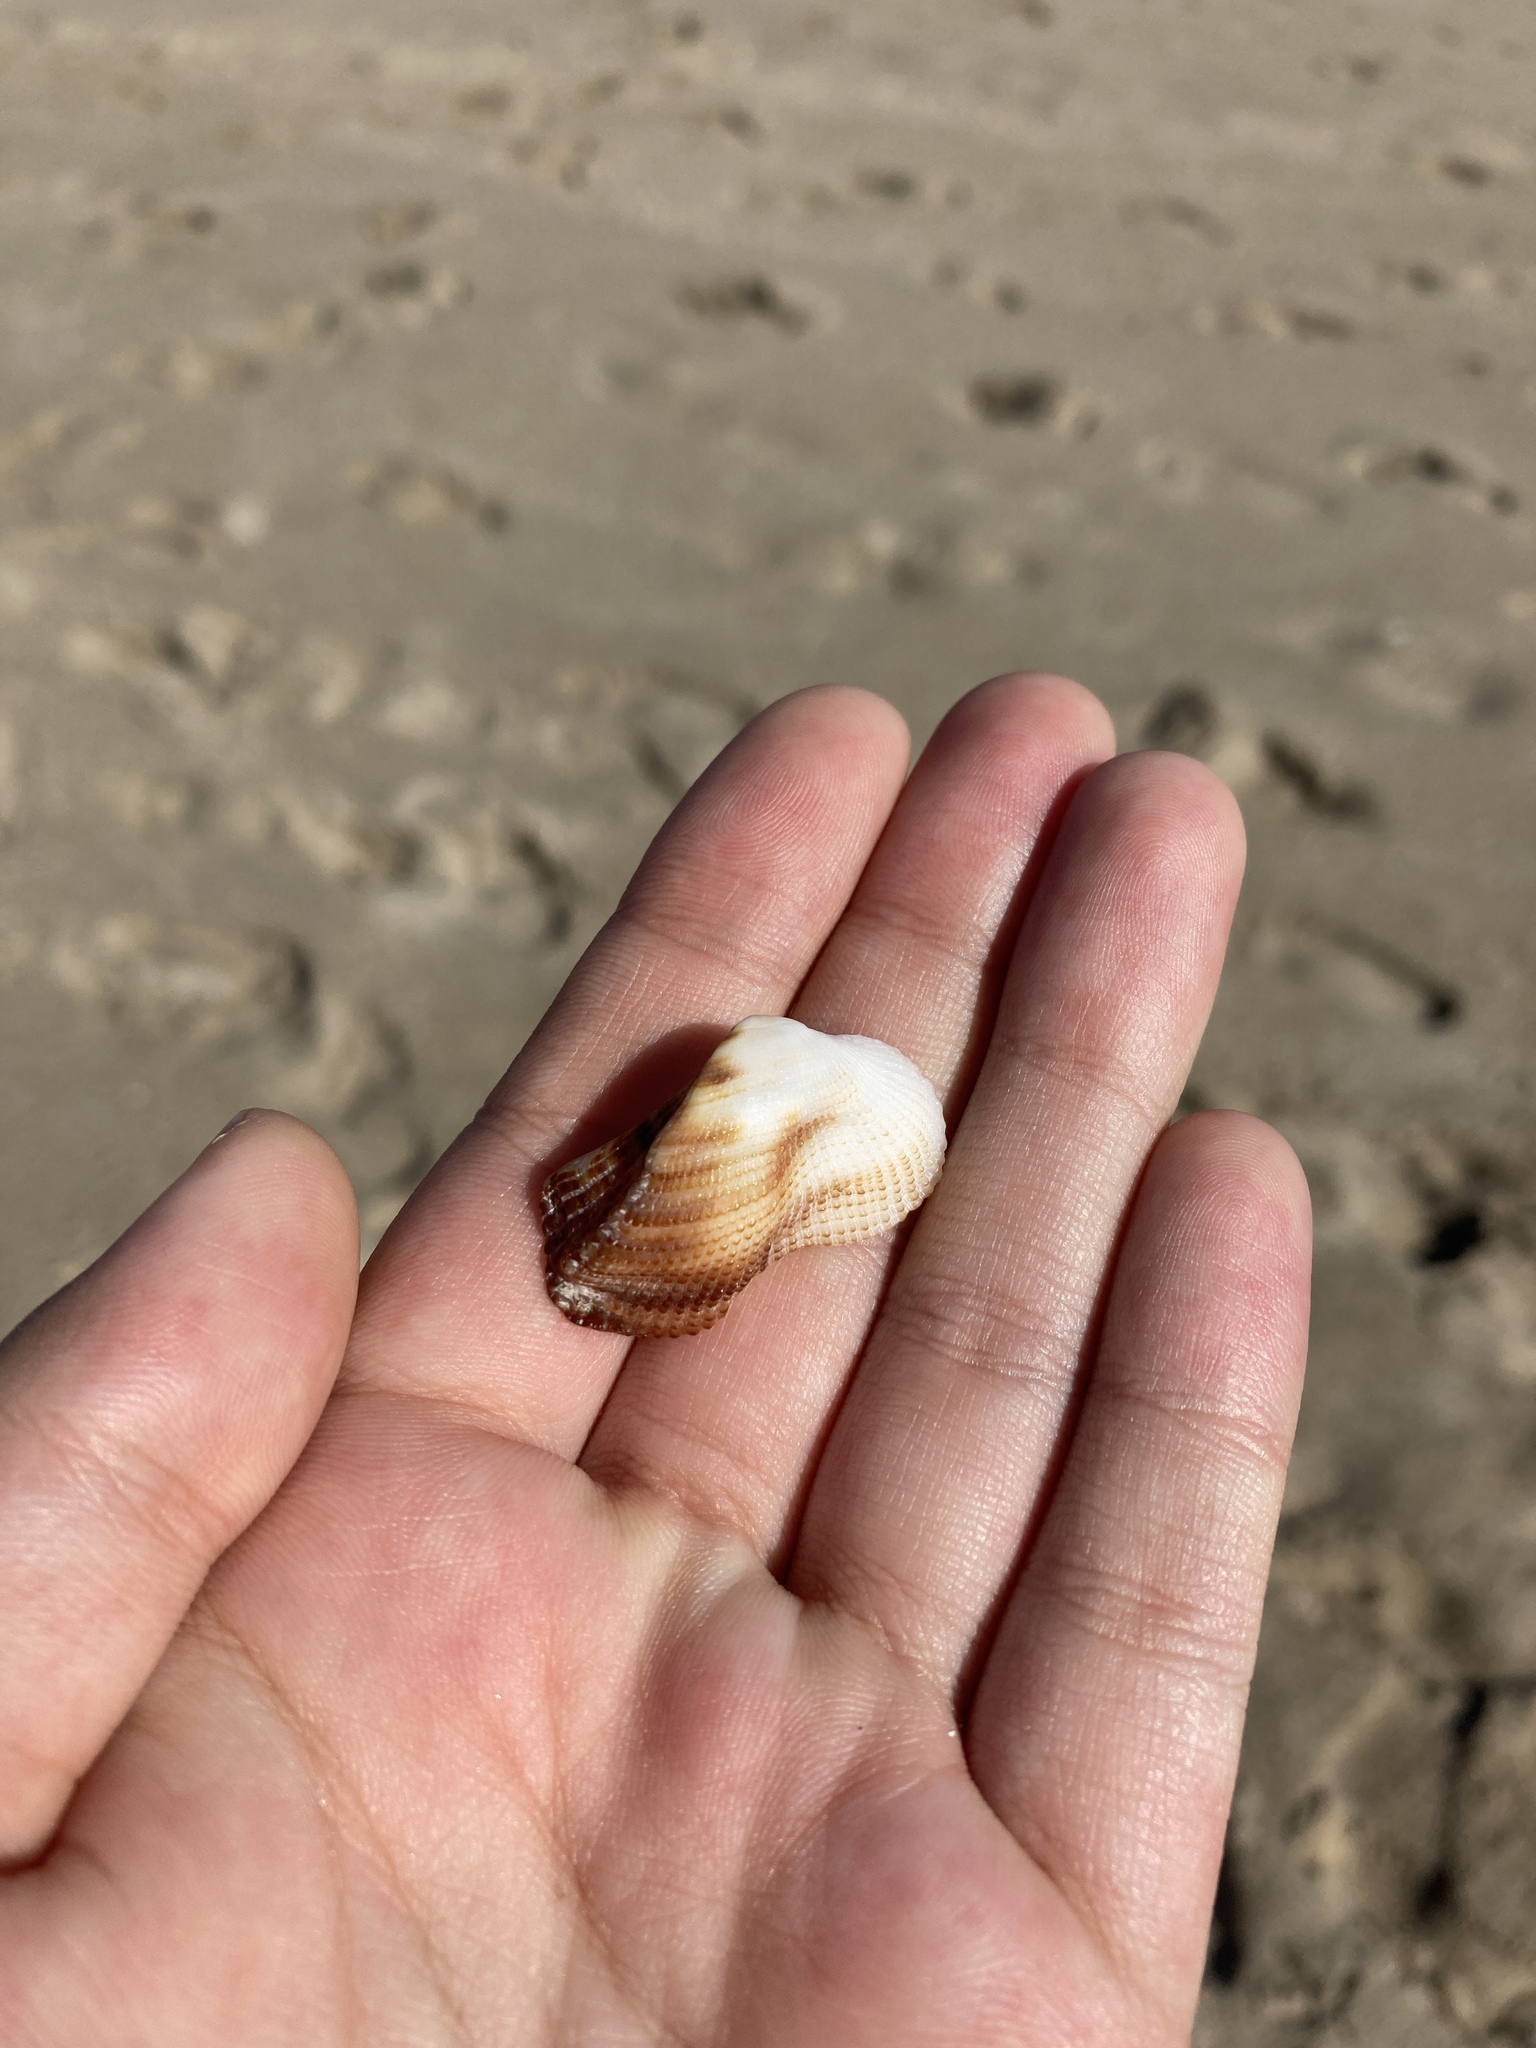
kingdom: Animalia
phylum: Mollusca
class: Bivalvia
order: Arcida
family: Arcidae
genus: Lamarcka
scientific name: Lamarcka imbricata
